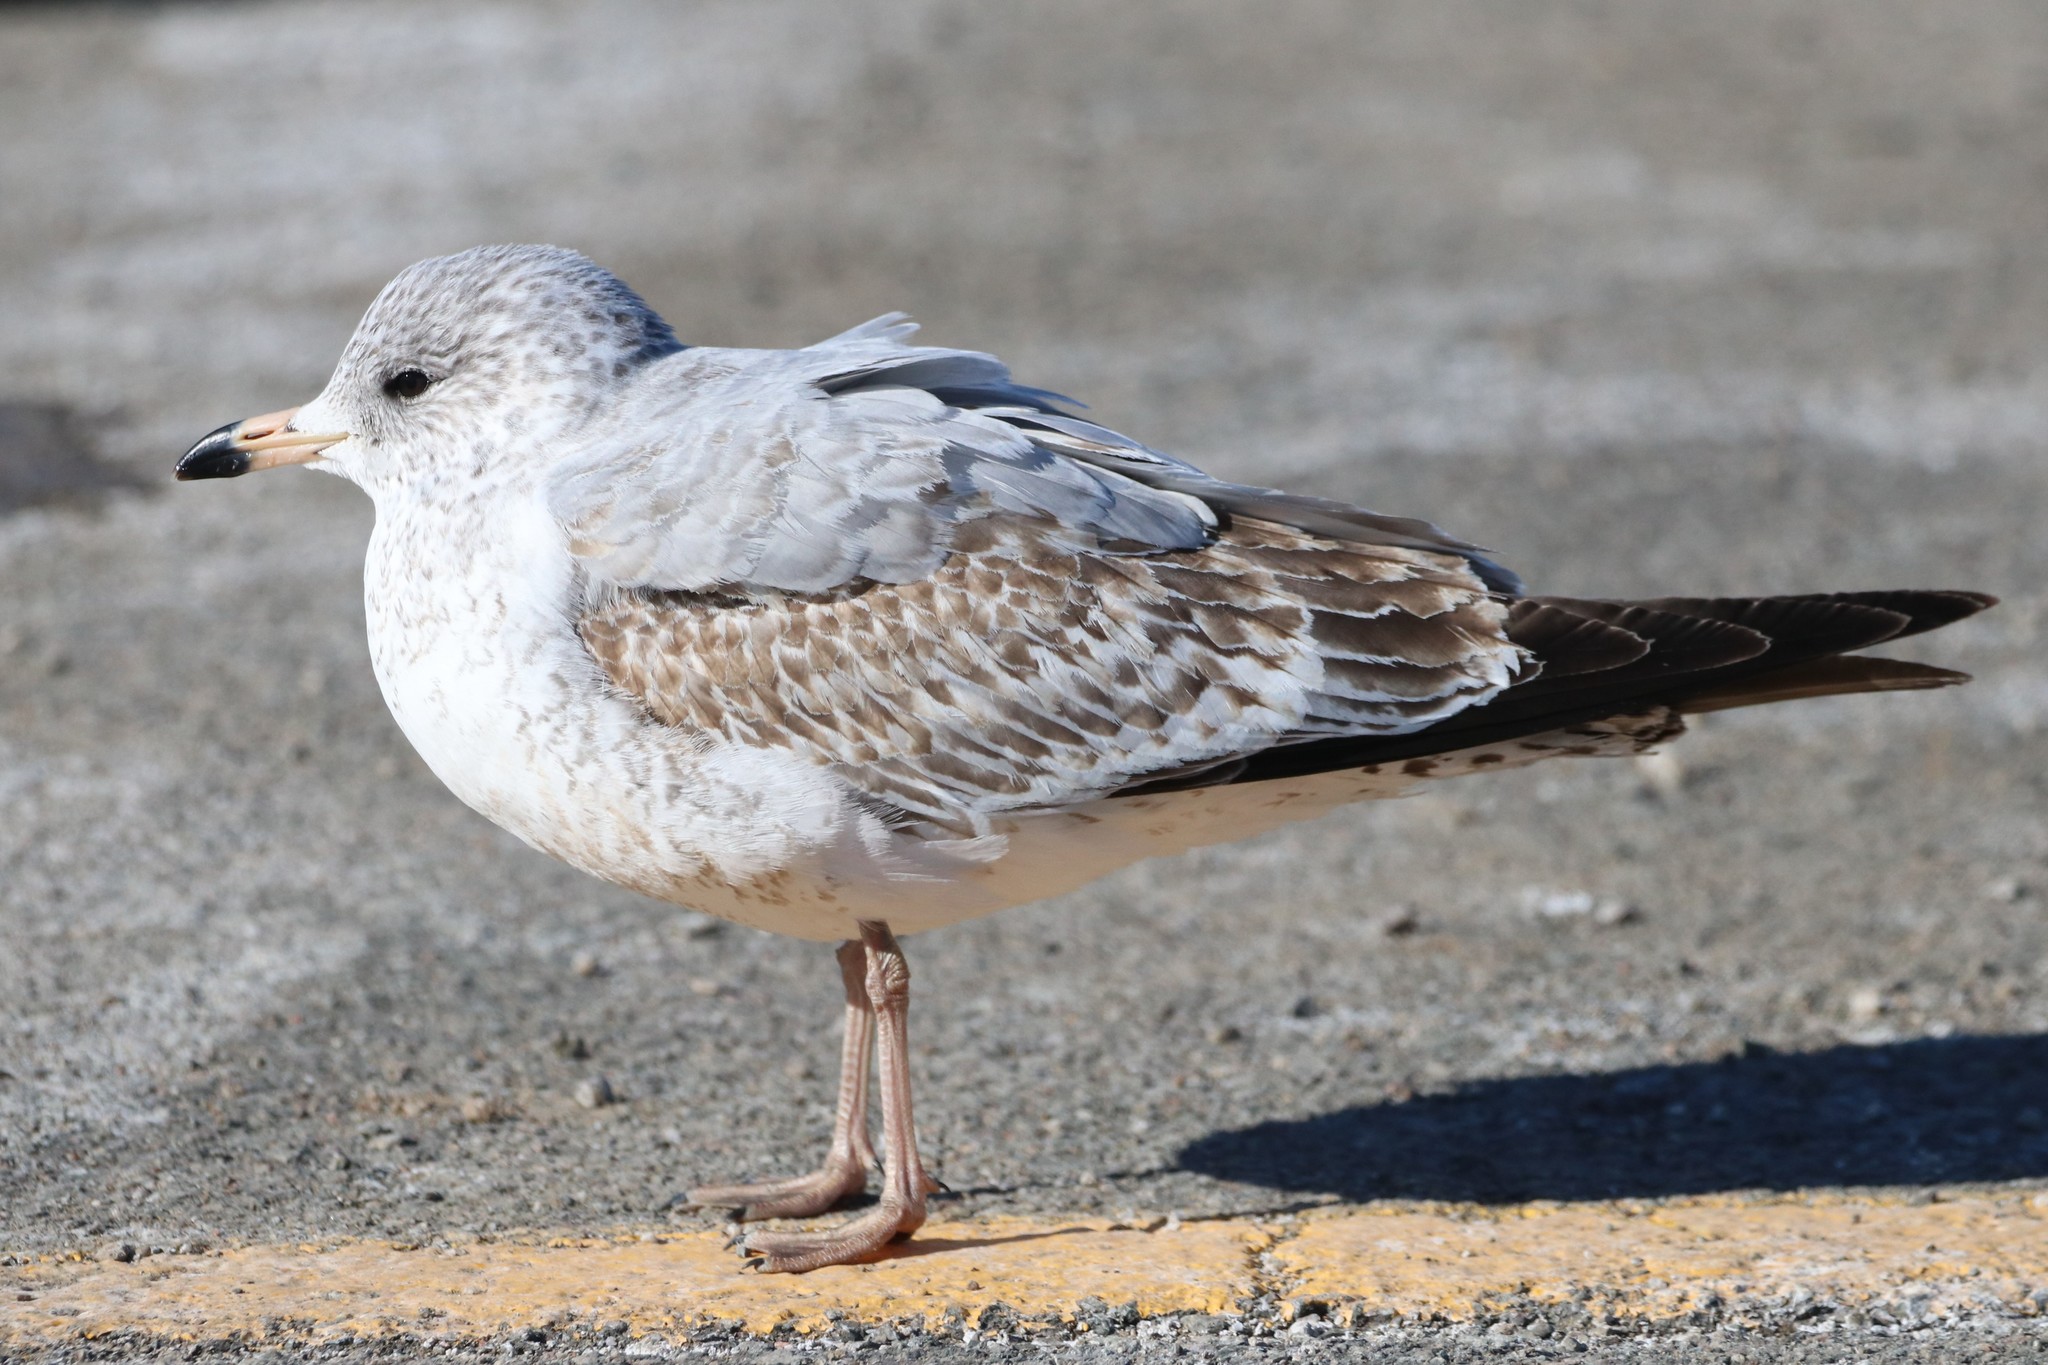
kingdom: Animalia
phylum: Chordata
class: Aves
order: Charadriiformes
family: Laridae
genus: Larus
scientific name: Larus delawarensis
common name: Ring-billed gull
